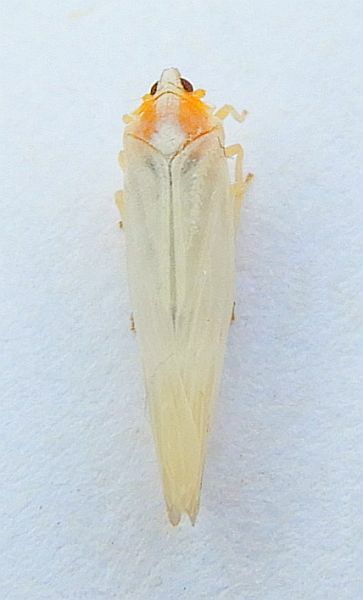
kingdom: Animalia
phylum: Arthropoda
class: Insecta
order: Hemiptera
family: Derbidae
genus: Neocenchrea
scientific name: Neocenchrea heidemanni
